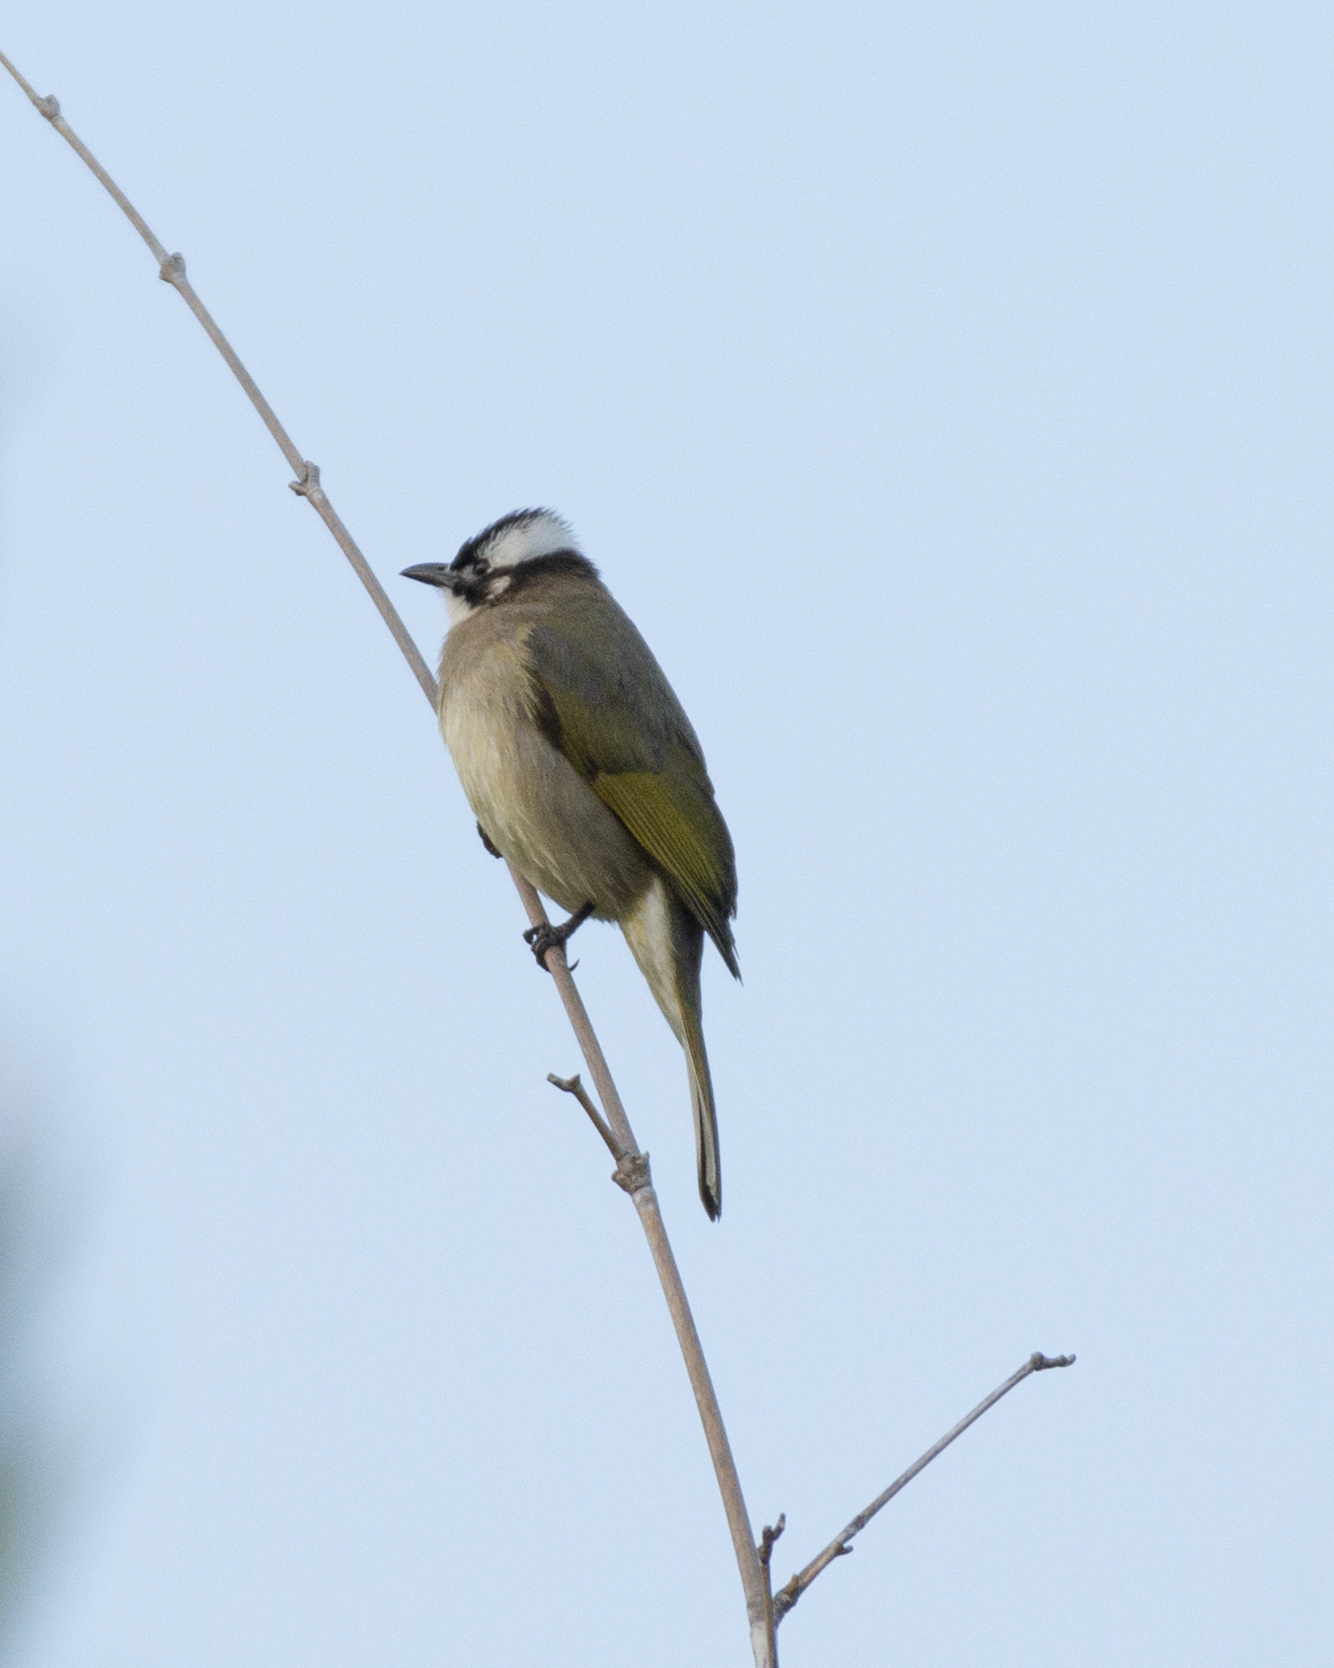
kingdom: Animalia
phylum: Chordata
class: Aves
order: Passeriformes
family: Pycnonotidae
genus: Pycnonotus
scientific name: Pycnonotus sinensis
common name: Light-vented bulbul
